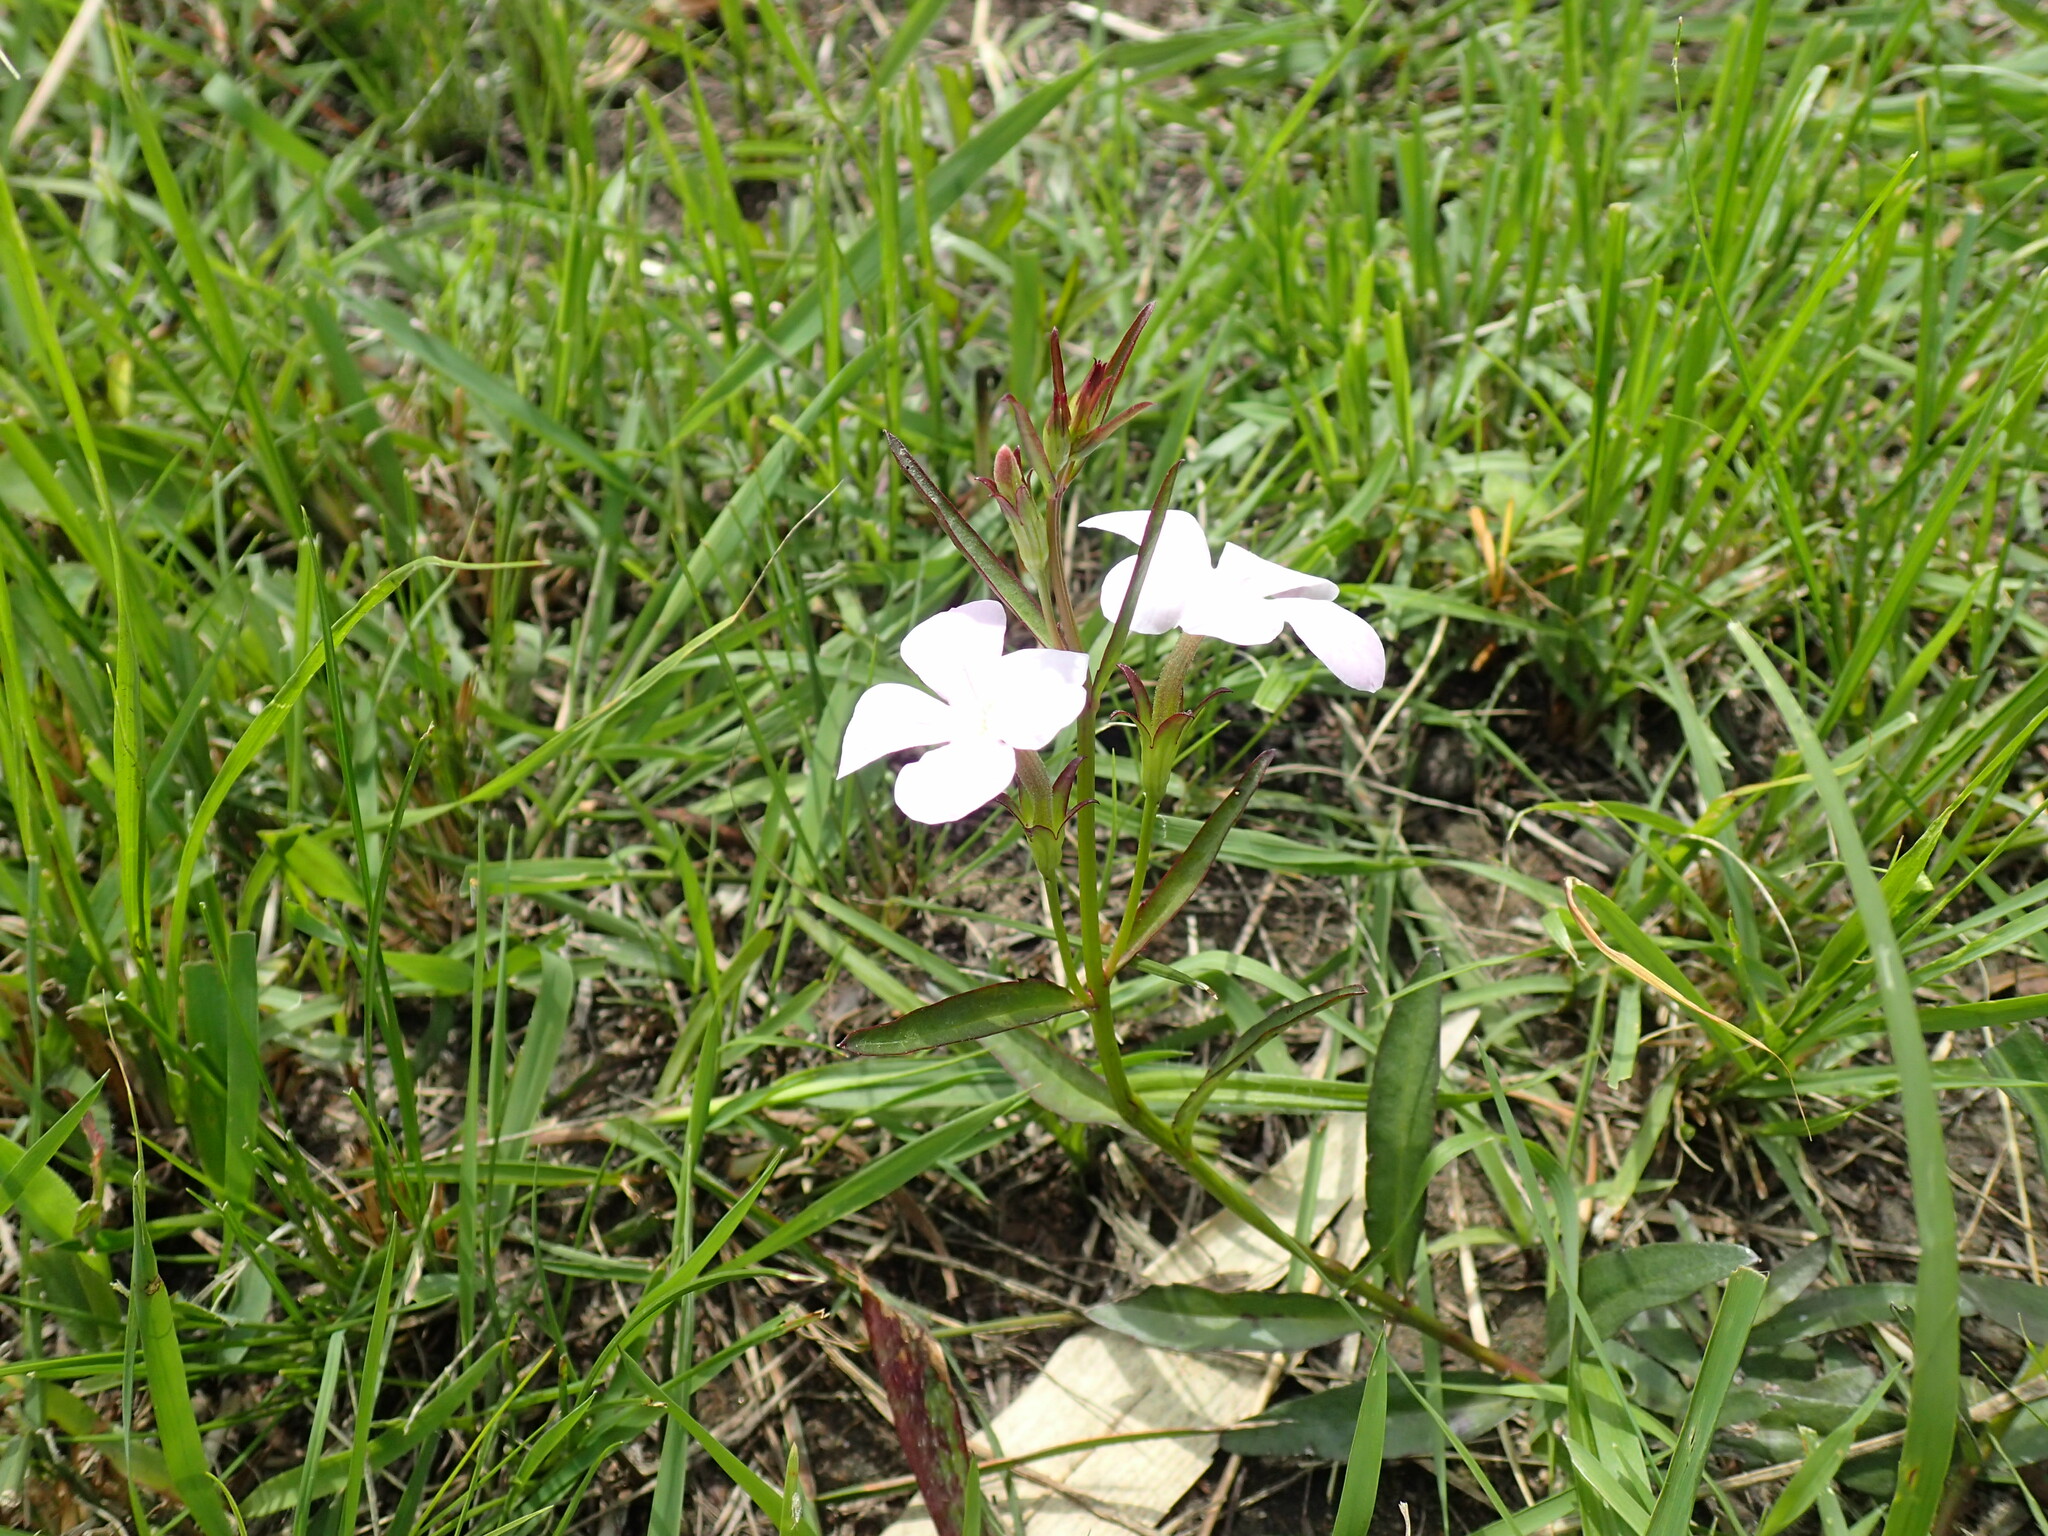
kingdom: Plantae
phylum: Tracheophyta
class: Magnoliopsida
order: Lamiales
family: Orobanchaceae
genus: Cycnium
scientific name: Cycnium tubulosum
